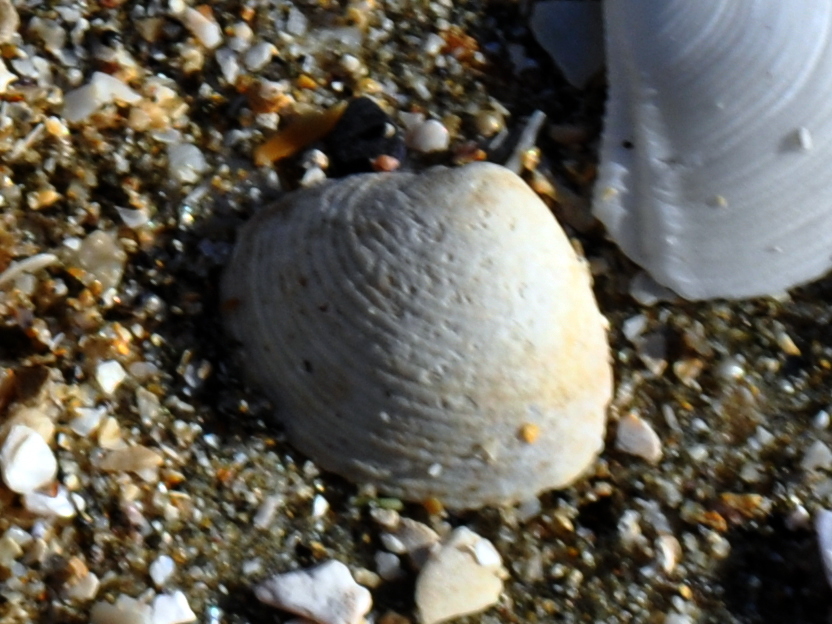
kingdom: Animalia
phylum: Mollusca
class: Bivalvia
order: Venerida
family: Veneridae
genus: Tawera
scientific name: Tawera spissa
